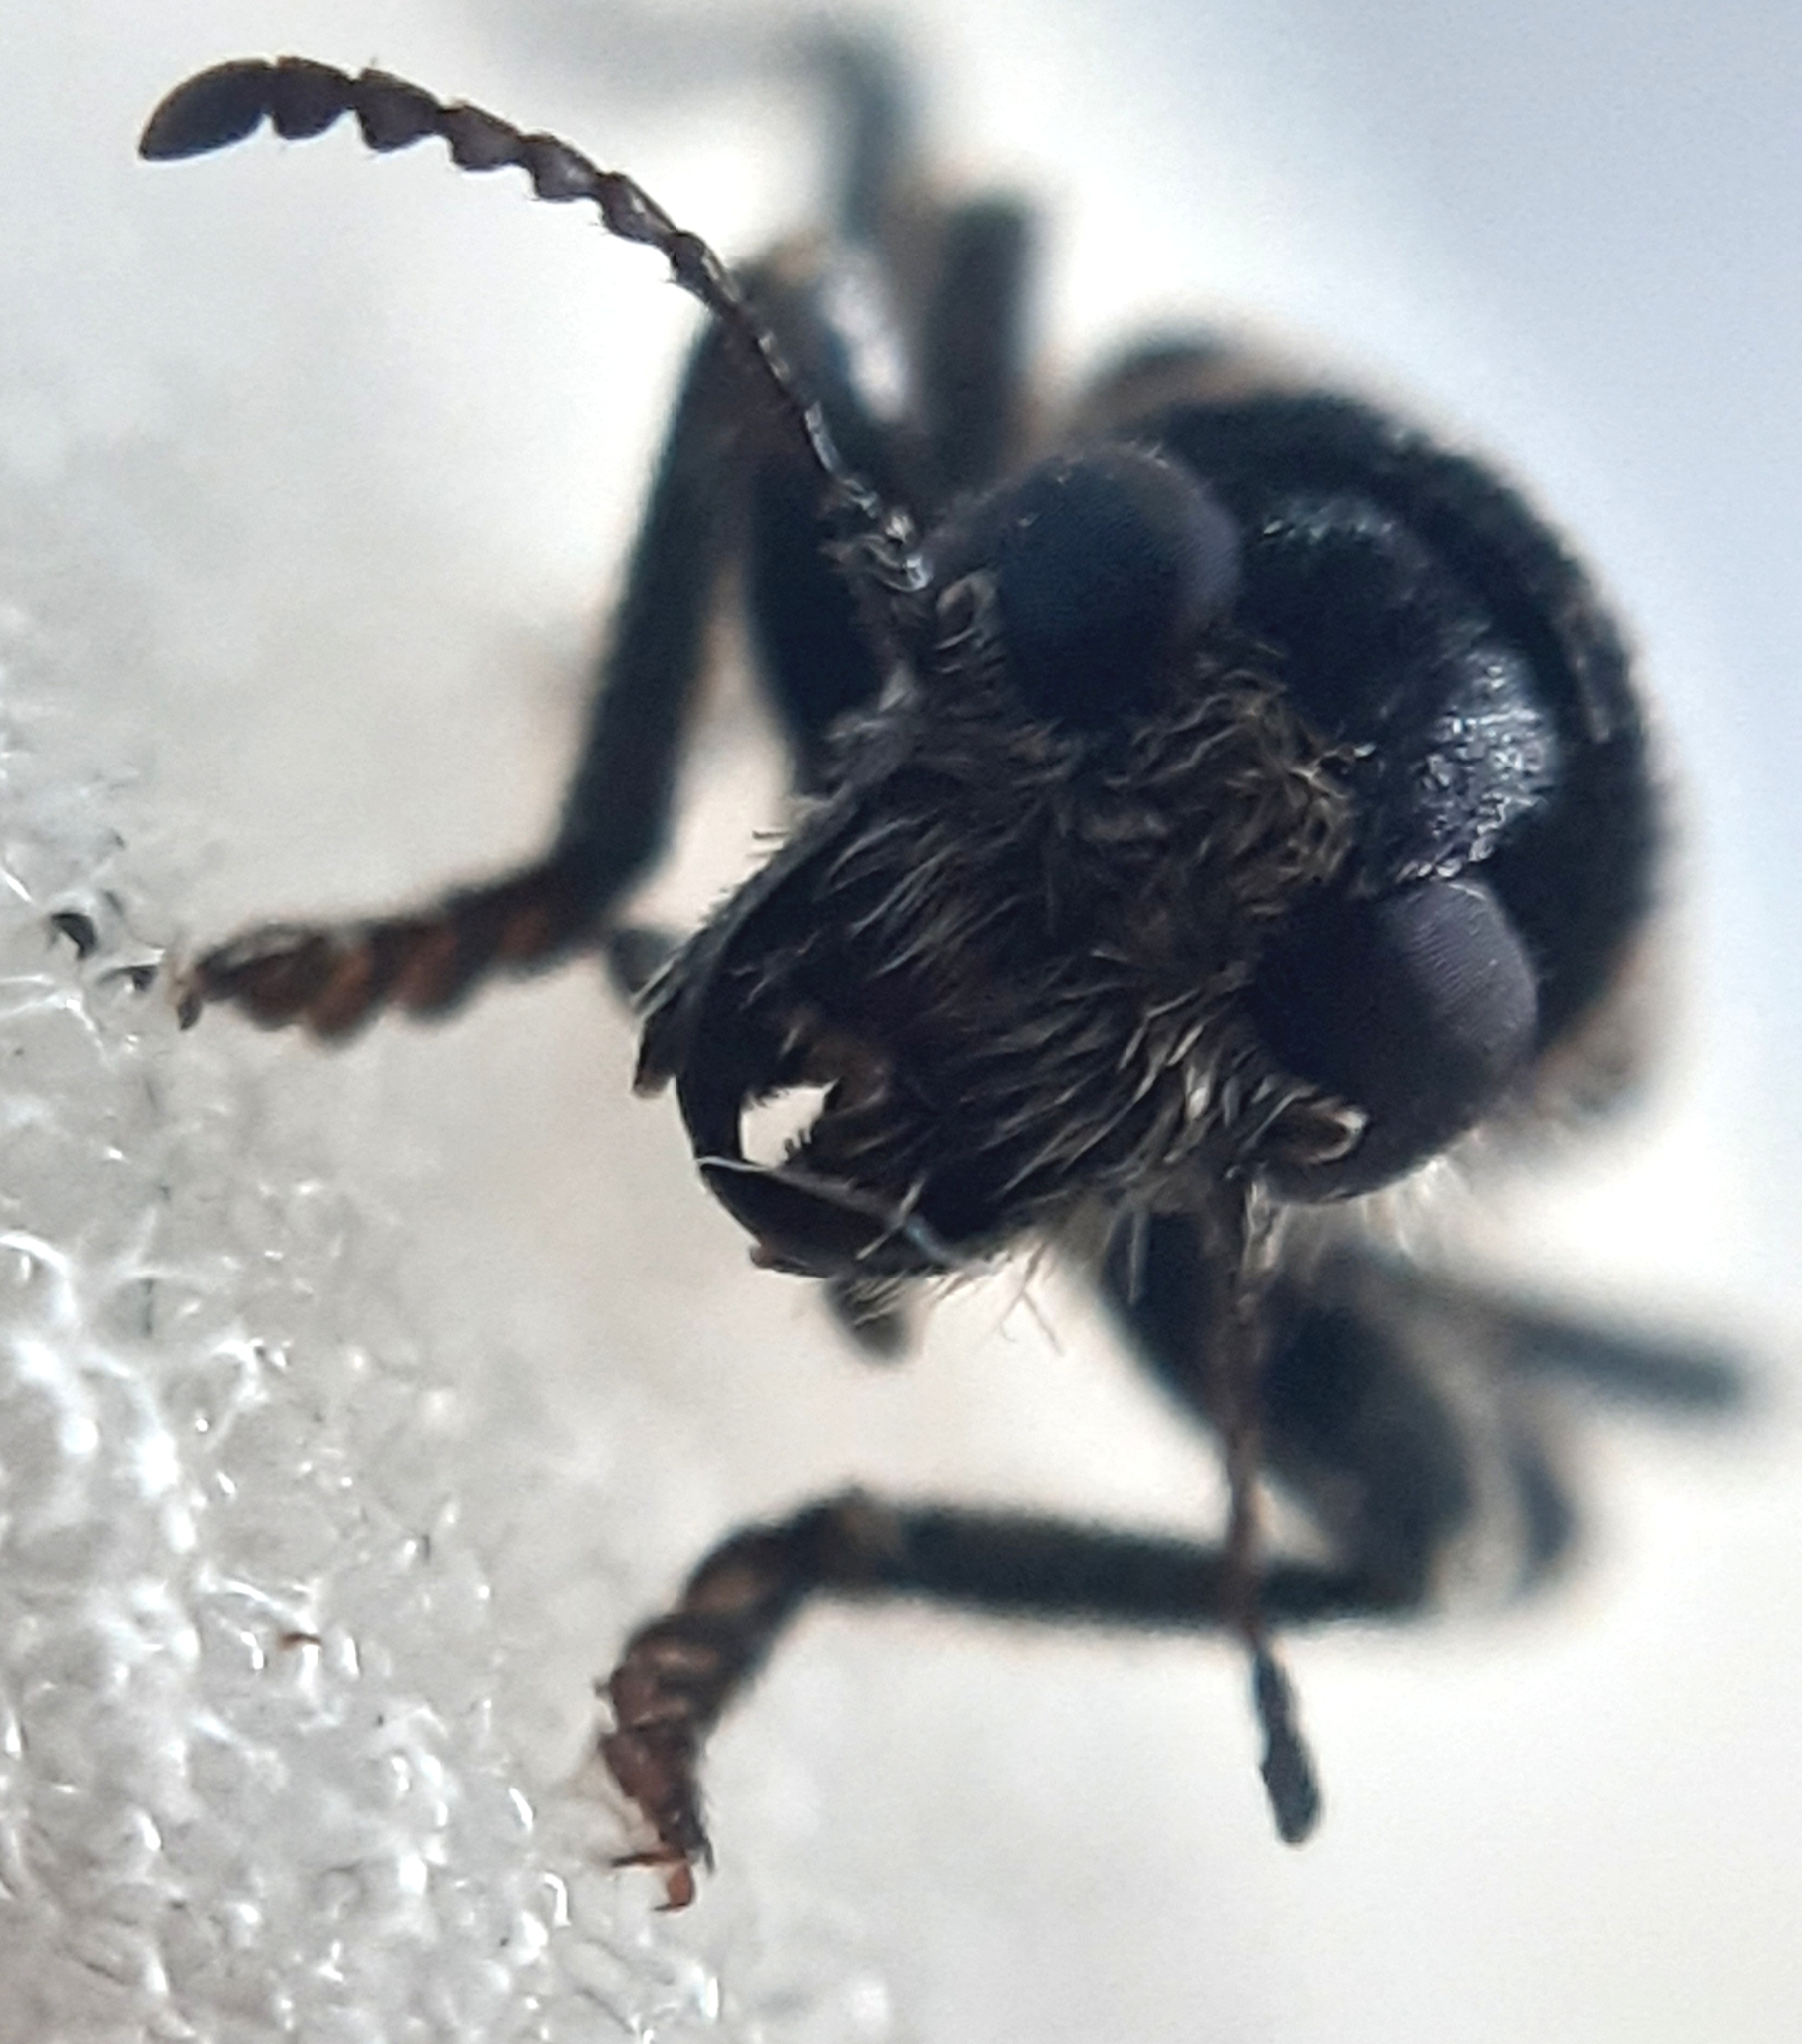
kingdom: Animalia
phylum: Arthropoda
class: Insecta
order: Coleoptera
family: Cleridae
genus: Clerus
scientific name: Clerus mutillarius
